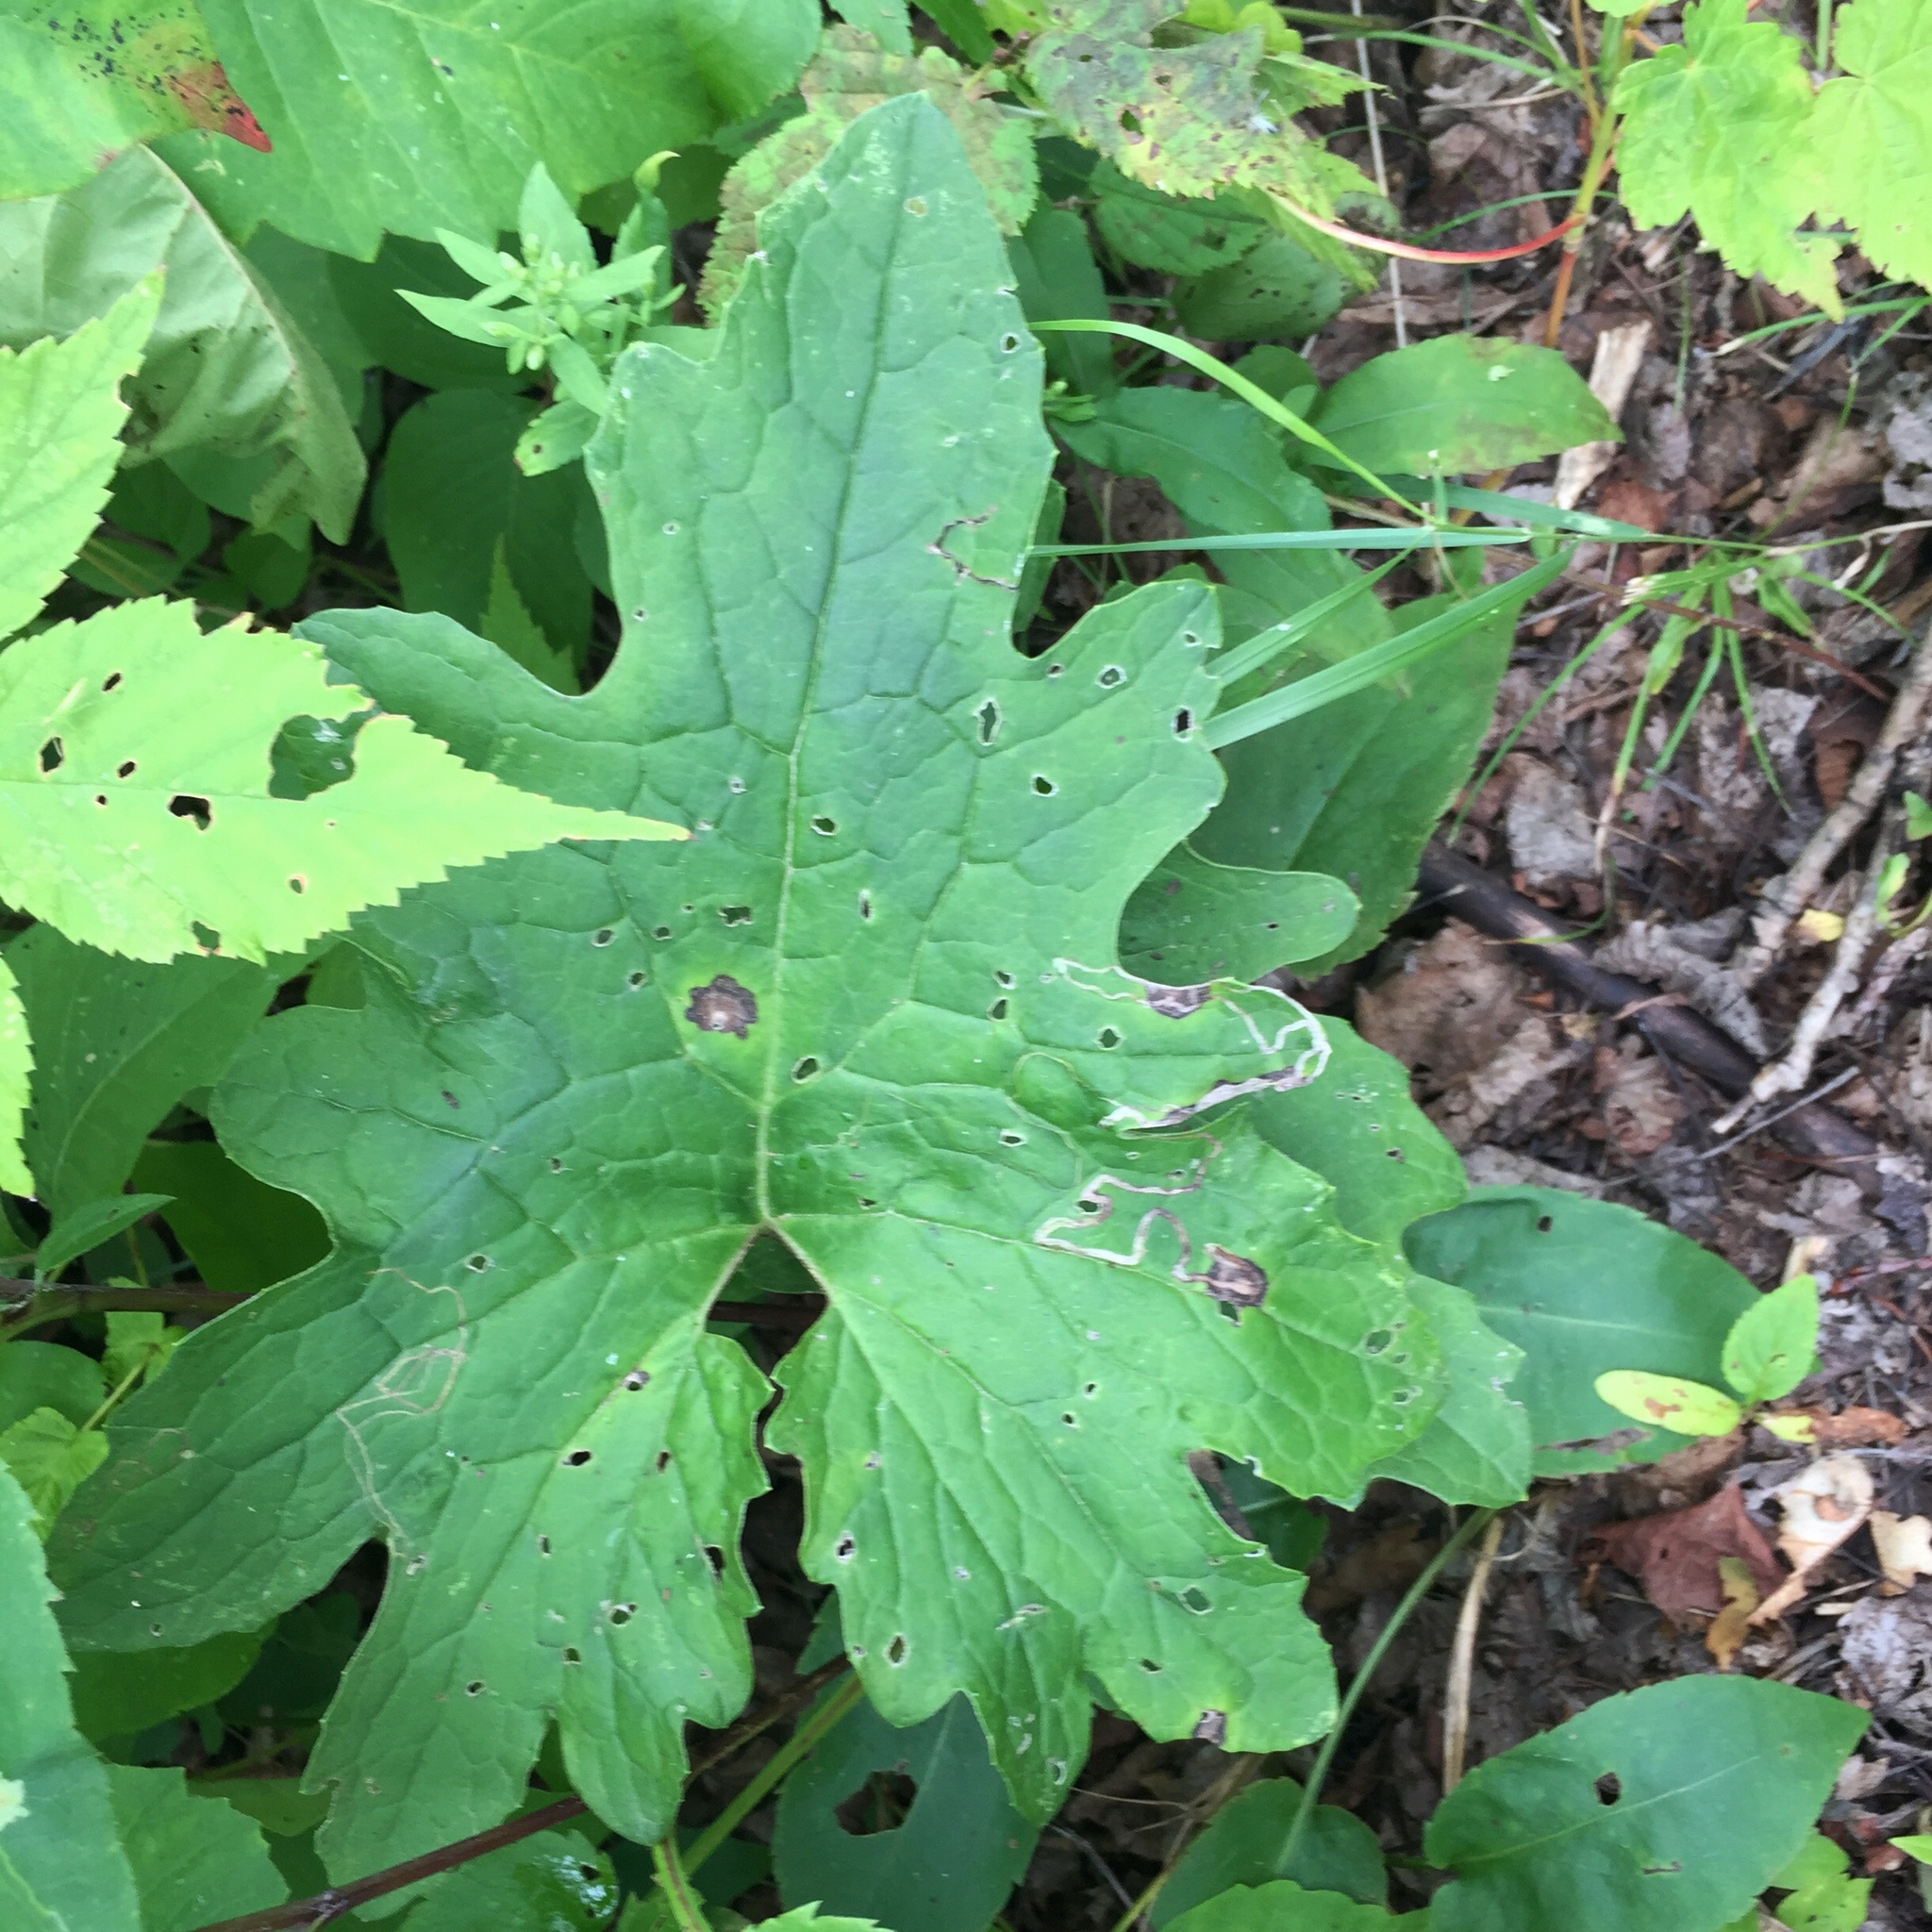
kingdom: Plantae
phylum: Tracheophyta
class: Magnoliopsida
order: Asterales
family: Asteraceae
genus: Petasites
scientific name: Petasites frigidus
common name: Arctic butterbur
